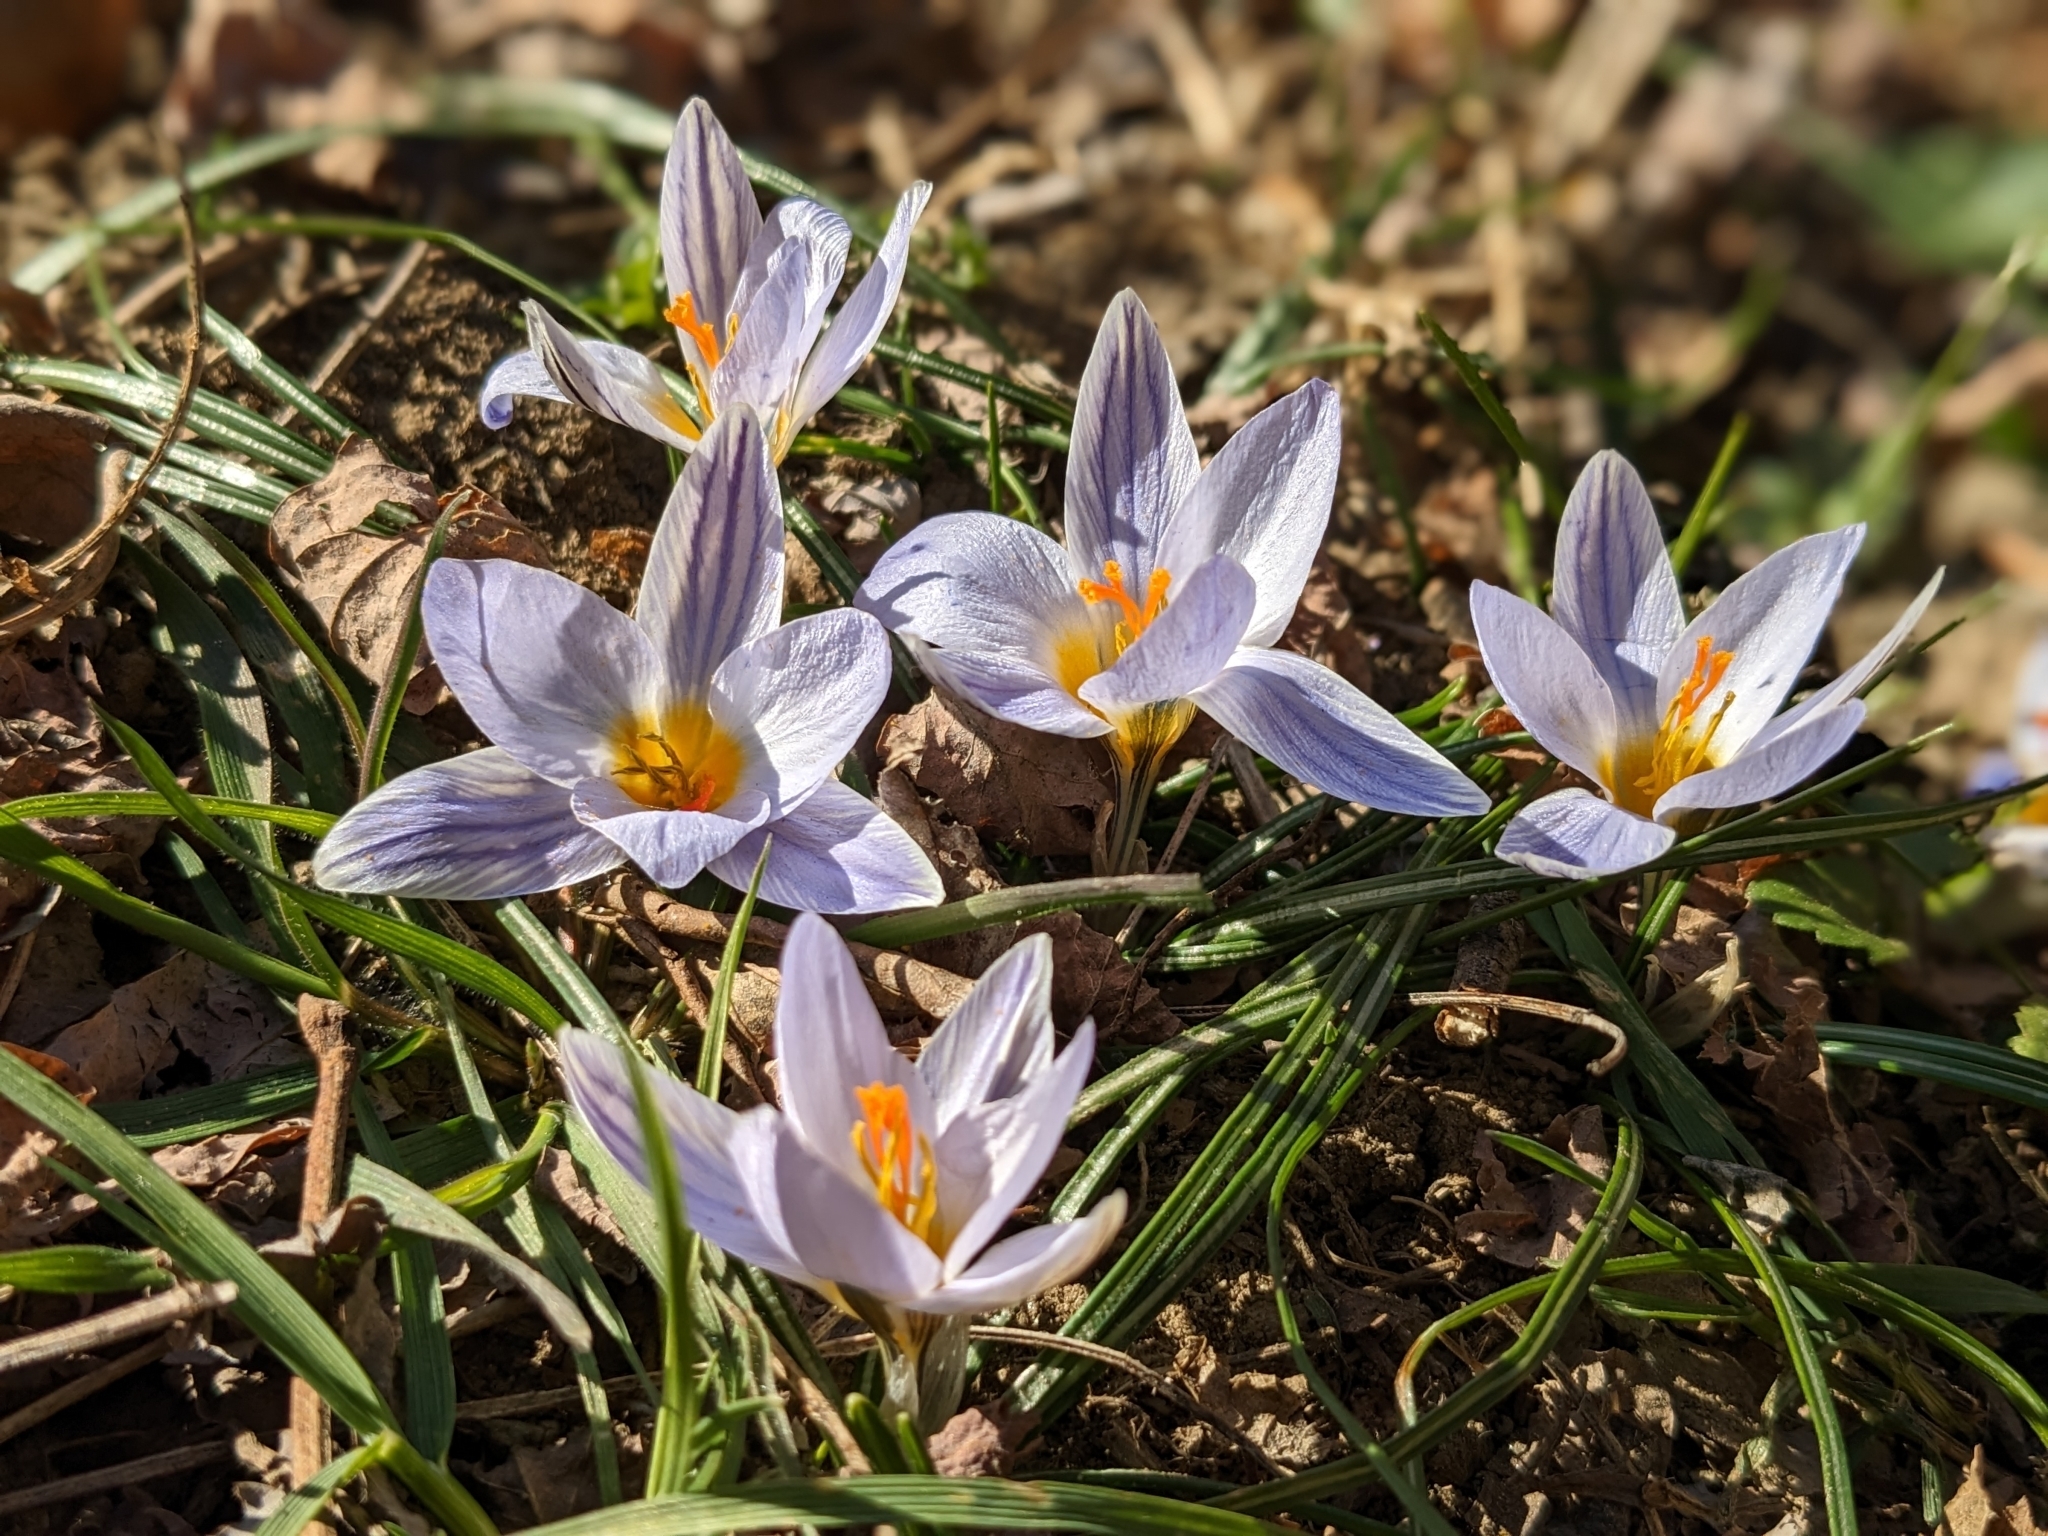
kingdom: Plantae
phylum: Tracheophyta
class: Liliopsida
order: Asparagales
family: Iridaceae
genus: Crocus
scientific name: Crocus biflorus
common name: Silvery crocus
